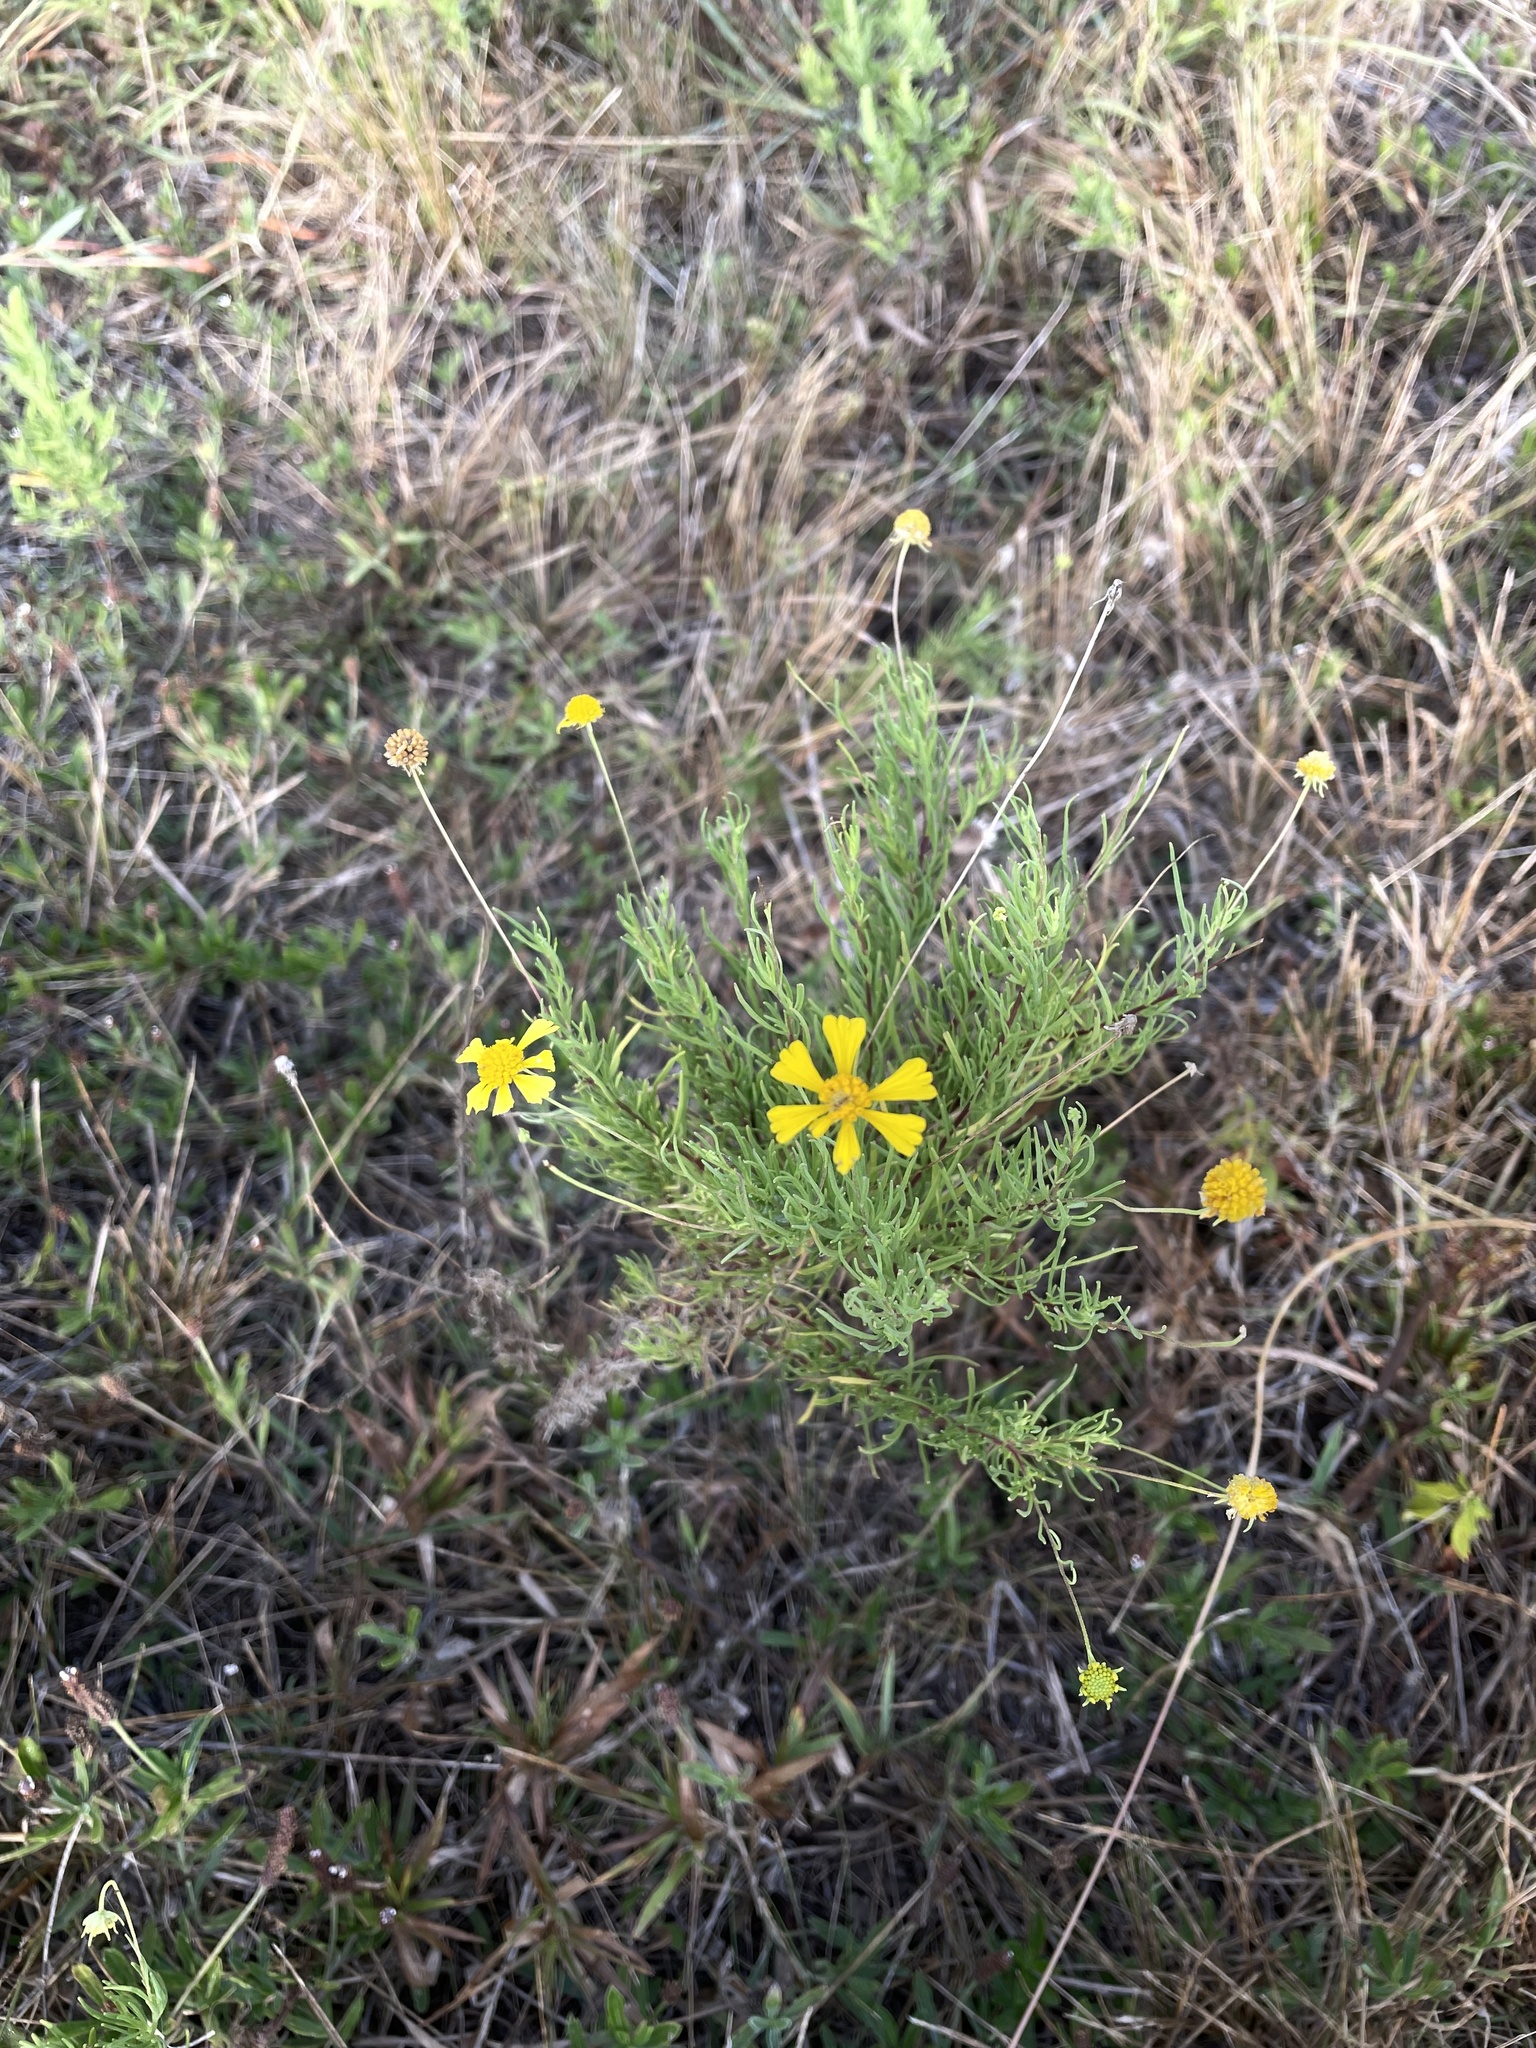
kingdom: Plantae
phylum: Tracheophyta
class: Magnoliopsida
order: Asterales
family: Asteraceae
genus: Helenium
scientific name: Helenium amarum
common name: Bitter sneezeweed
